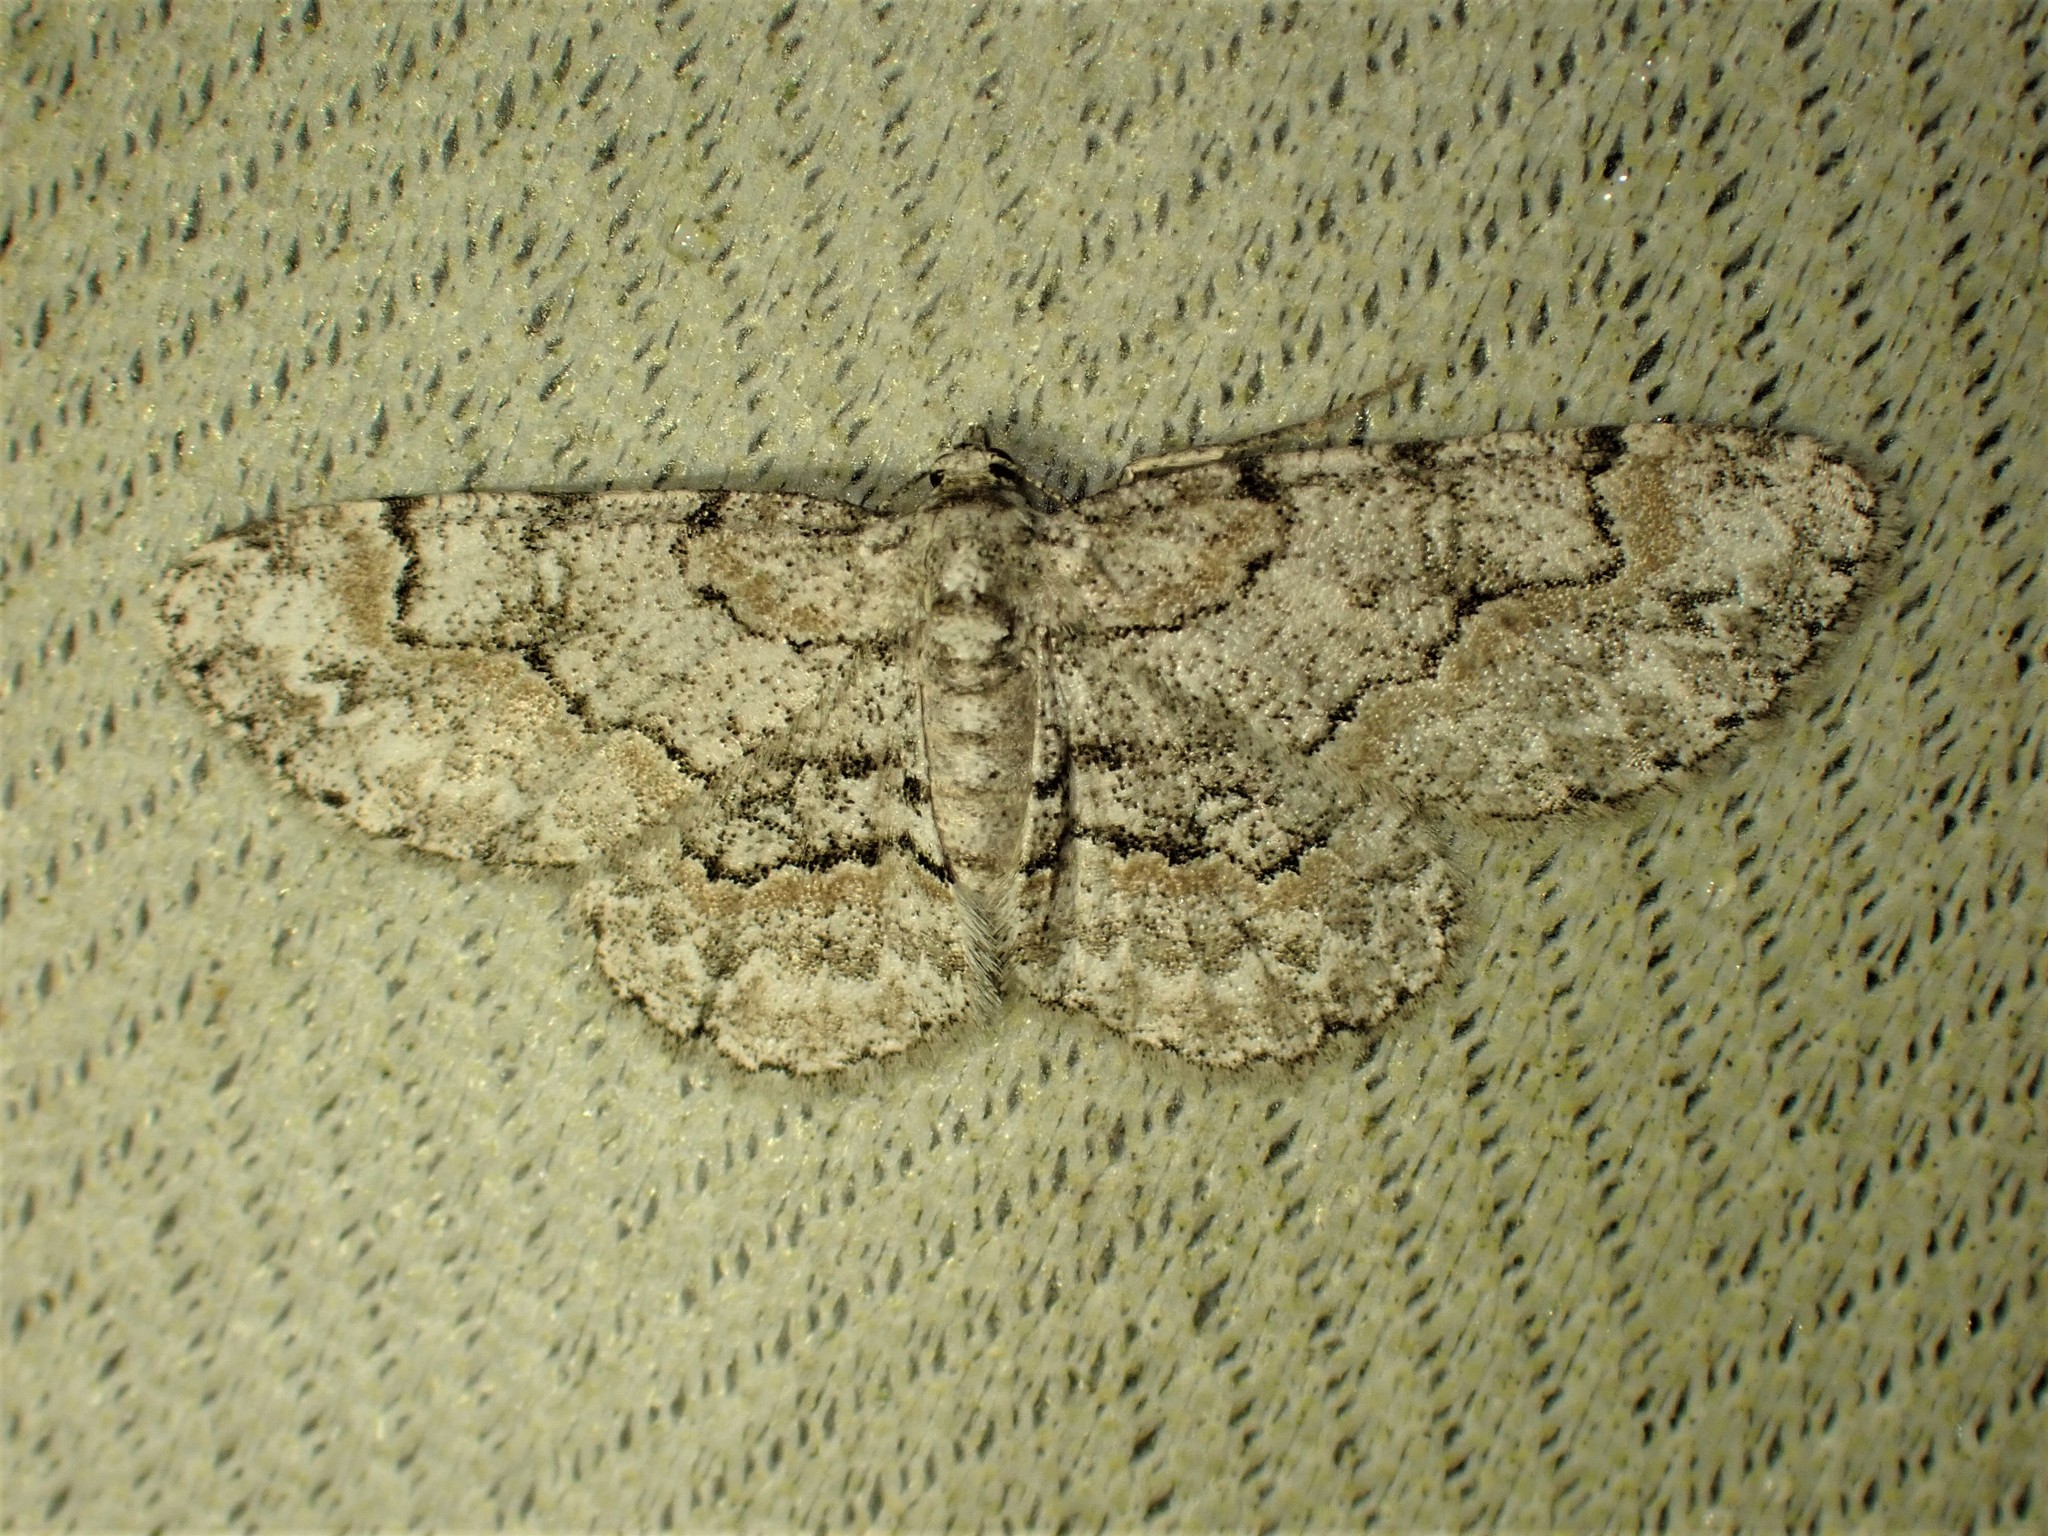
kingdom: Animalia
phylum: Arthropoda
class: Insecta
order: Lepidoptera
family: Geometridae
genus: Iridopsis
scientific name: Iridopsis ephyraria
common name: Pale-winged gray
